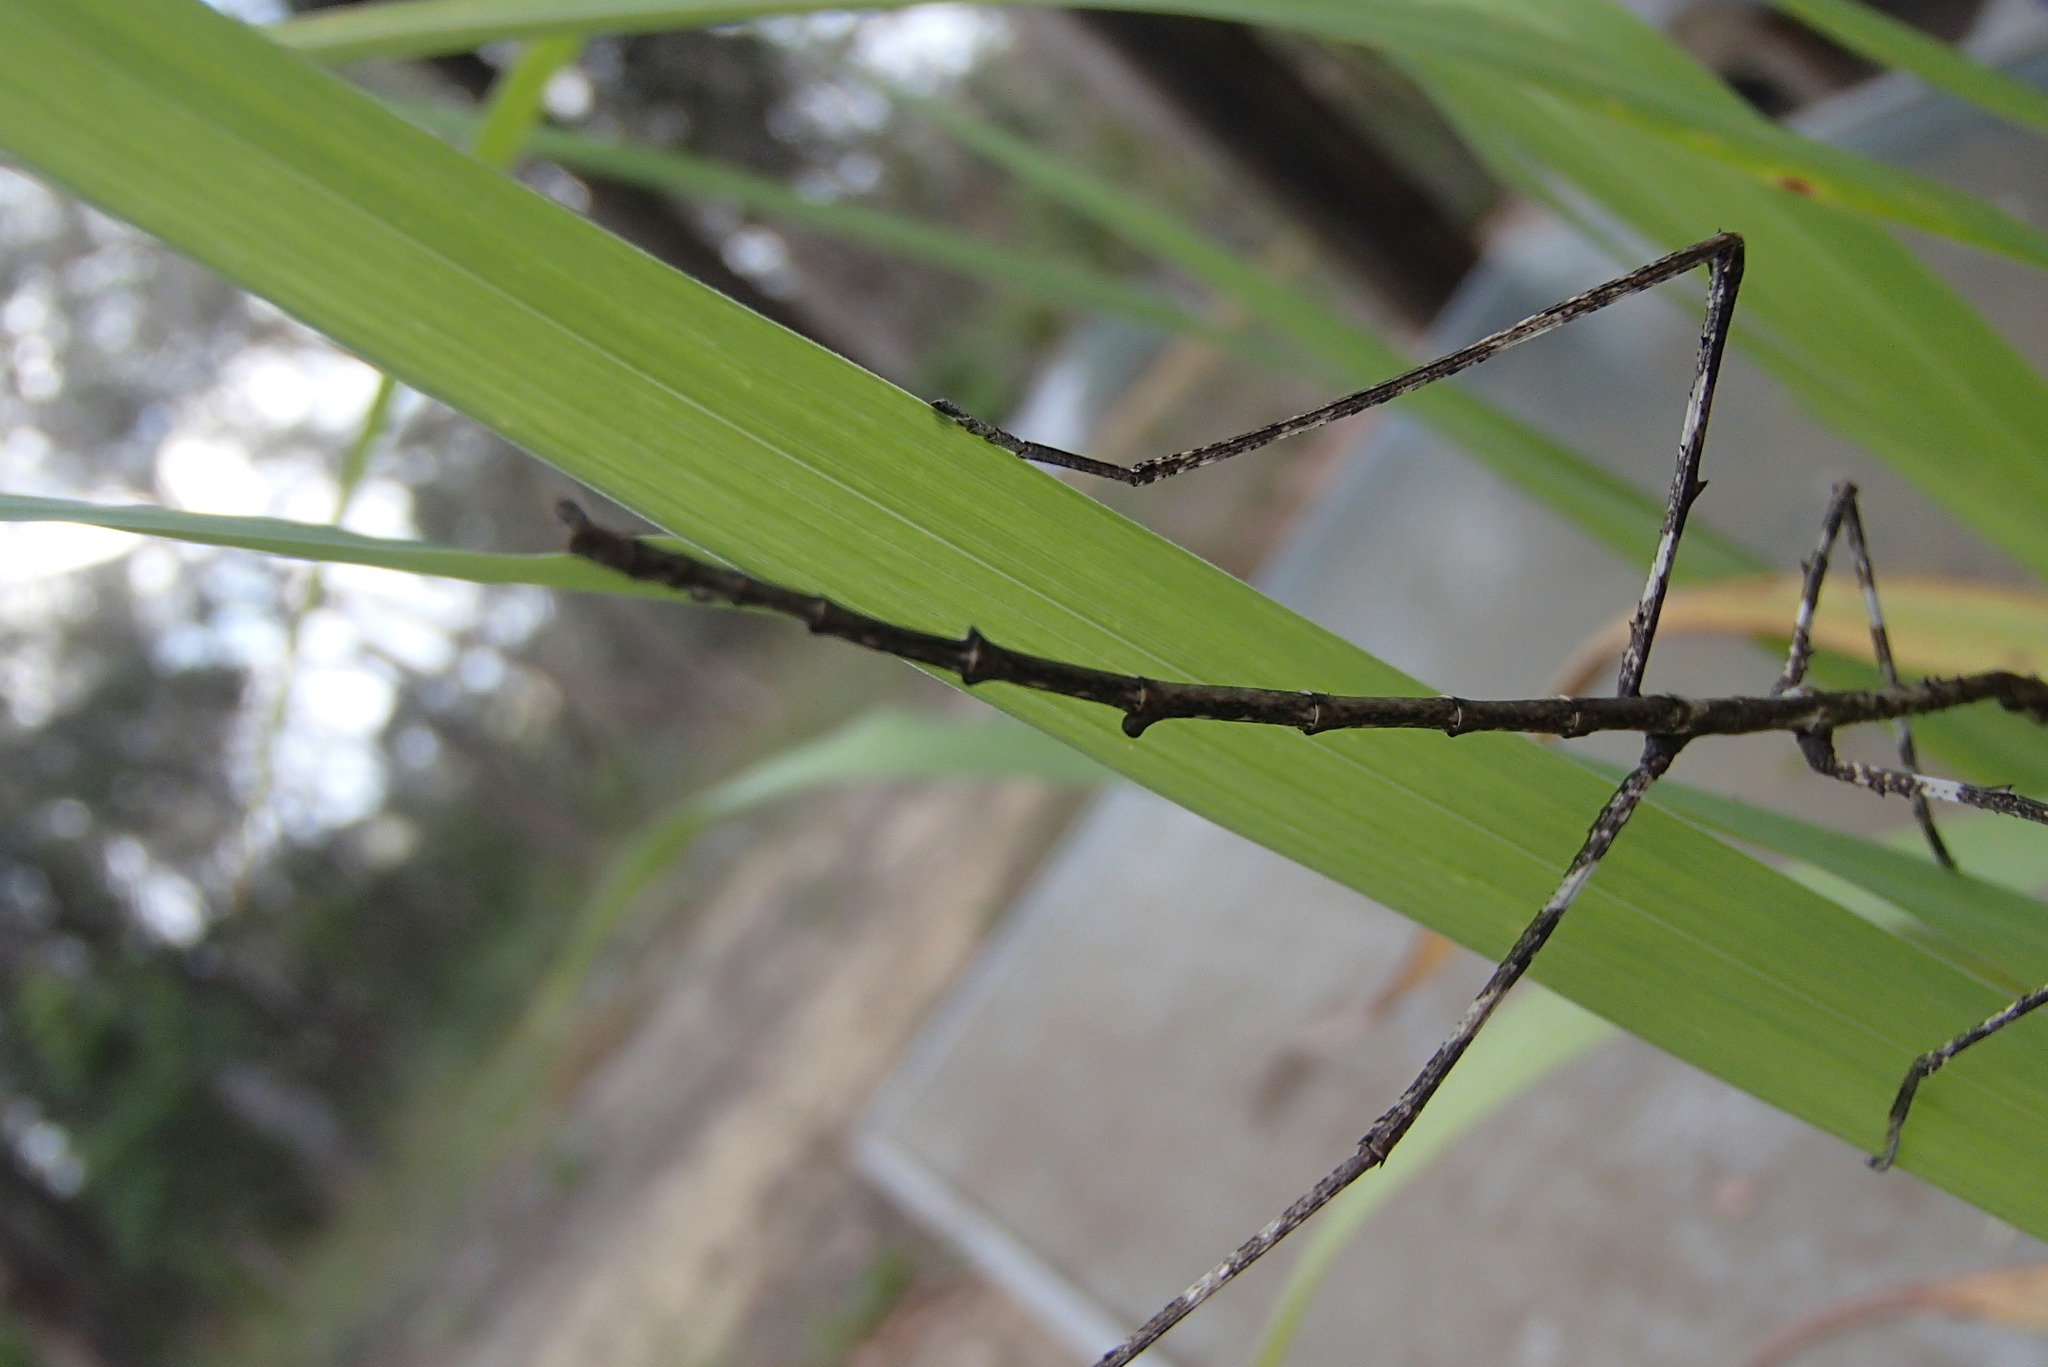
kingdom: Animalia
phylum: Arthropoda
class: Insecta
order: Phasmida
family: Phasmatidae
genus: Ctenomorpha
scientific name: Ctenomorpha marginipennis
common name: Margined-winged stick-insect
